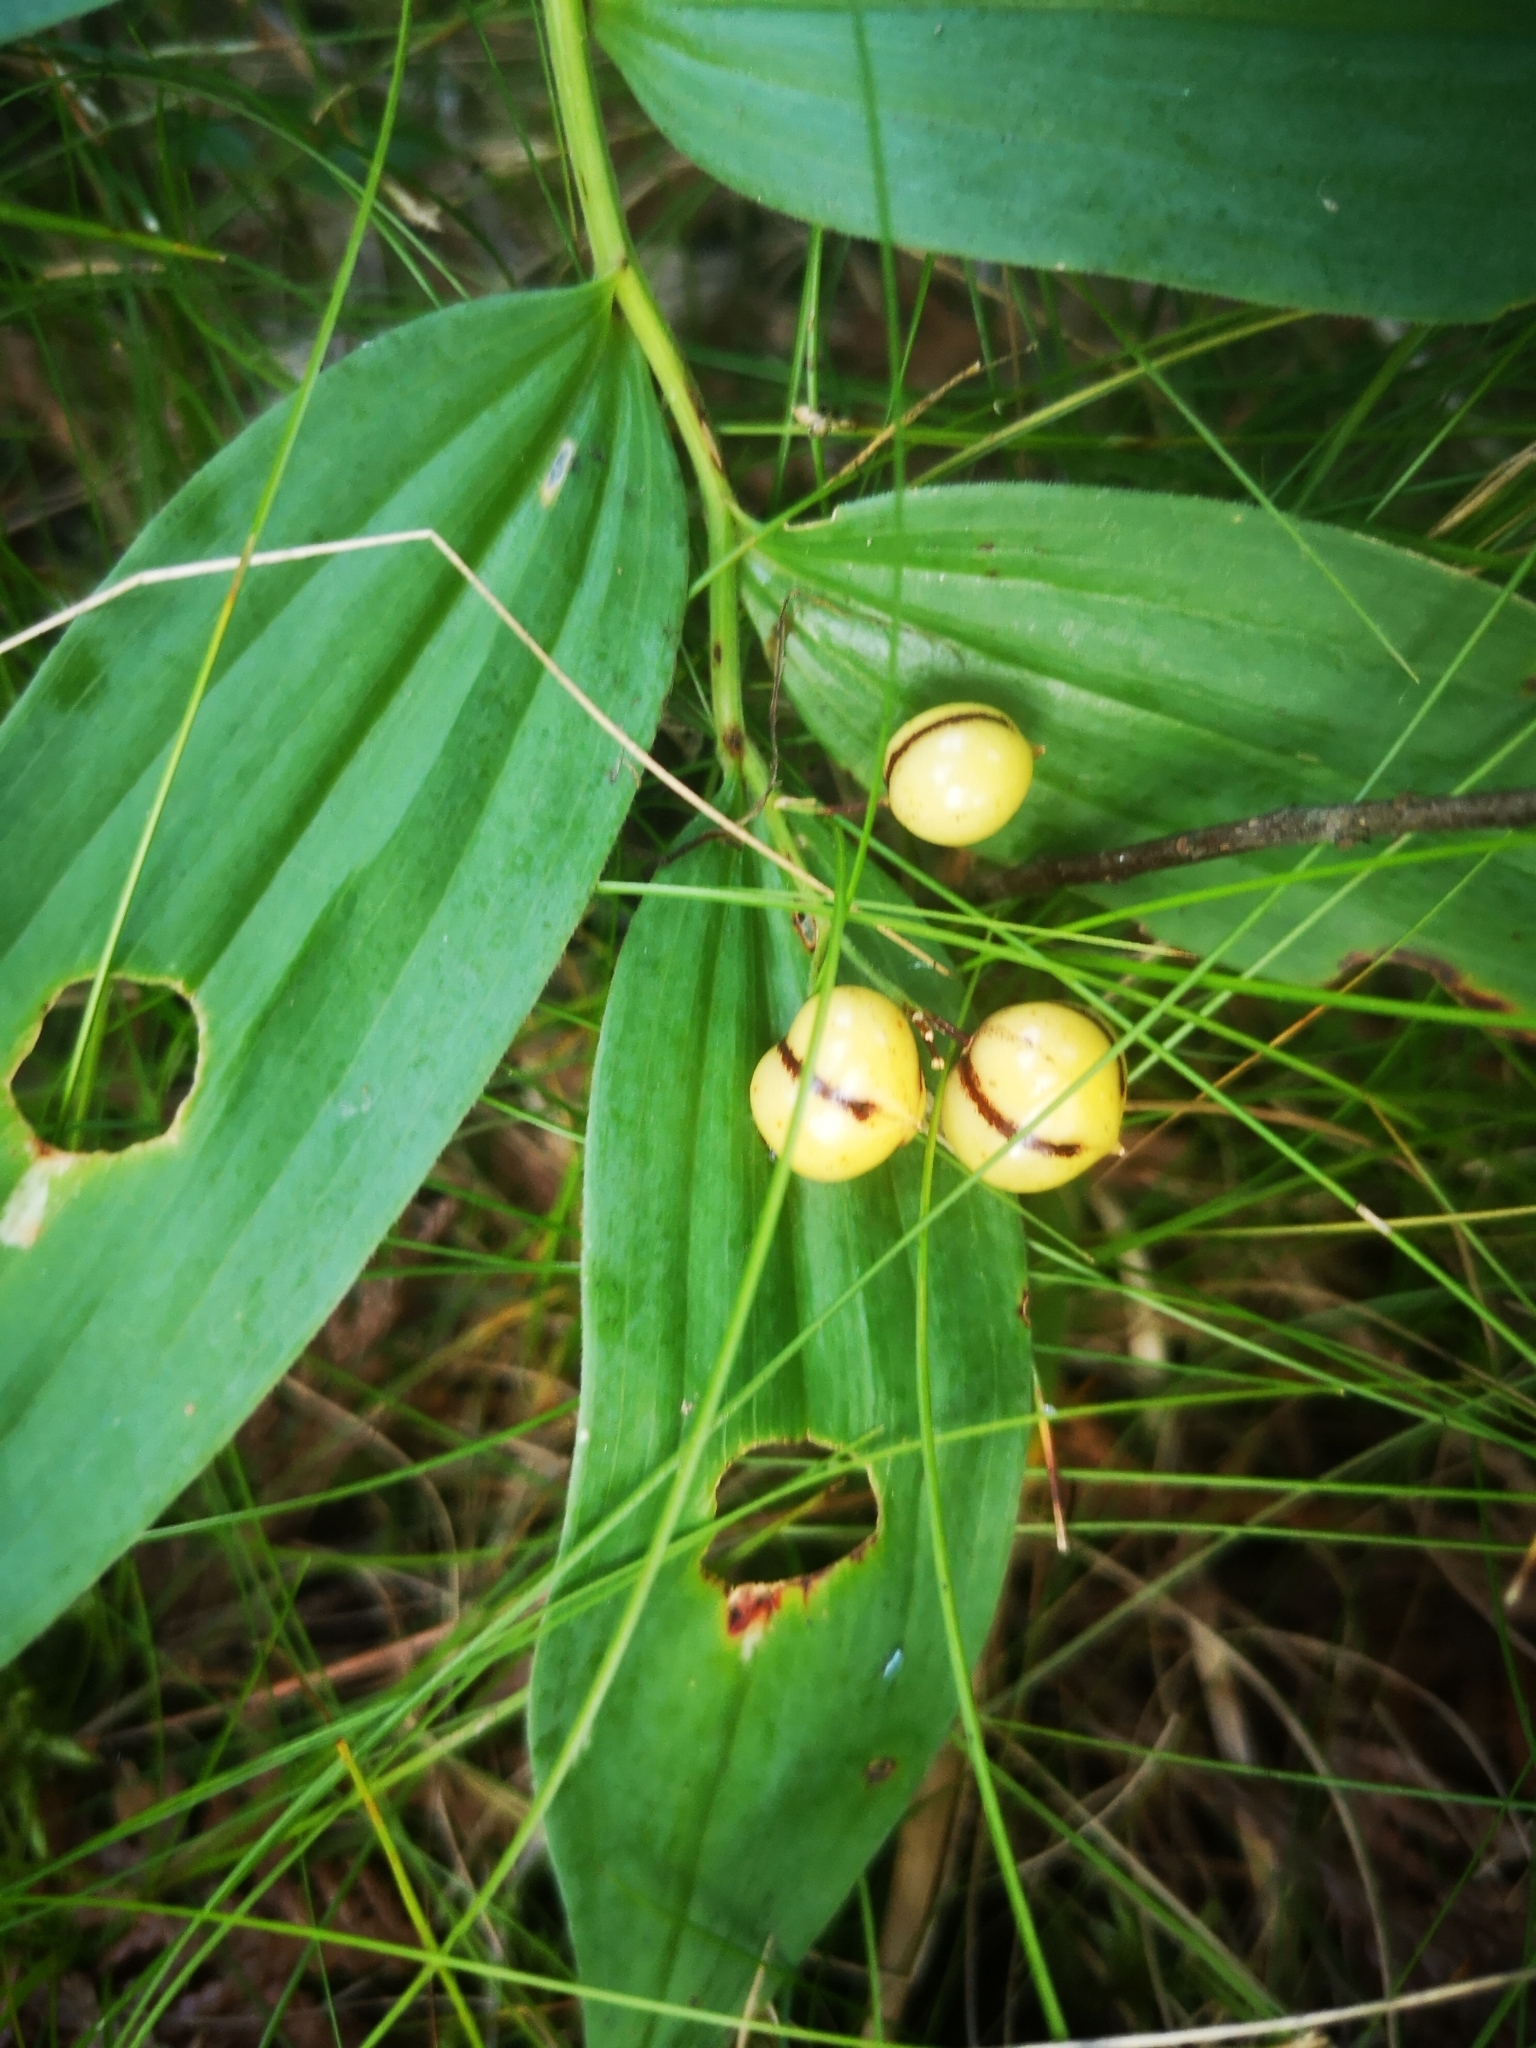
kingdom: Plantae
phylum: Tracheophyta
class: Liliopsida
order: Asparagales
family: Asparagaceae
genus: Maianthemum
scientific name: Maianthemum stellatum
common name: Little false solomon's seal
